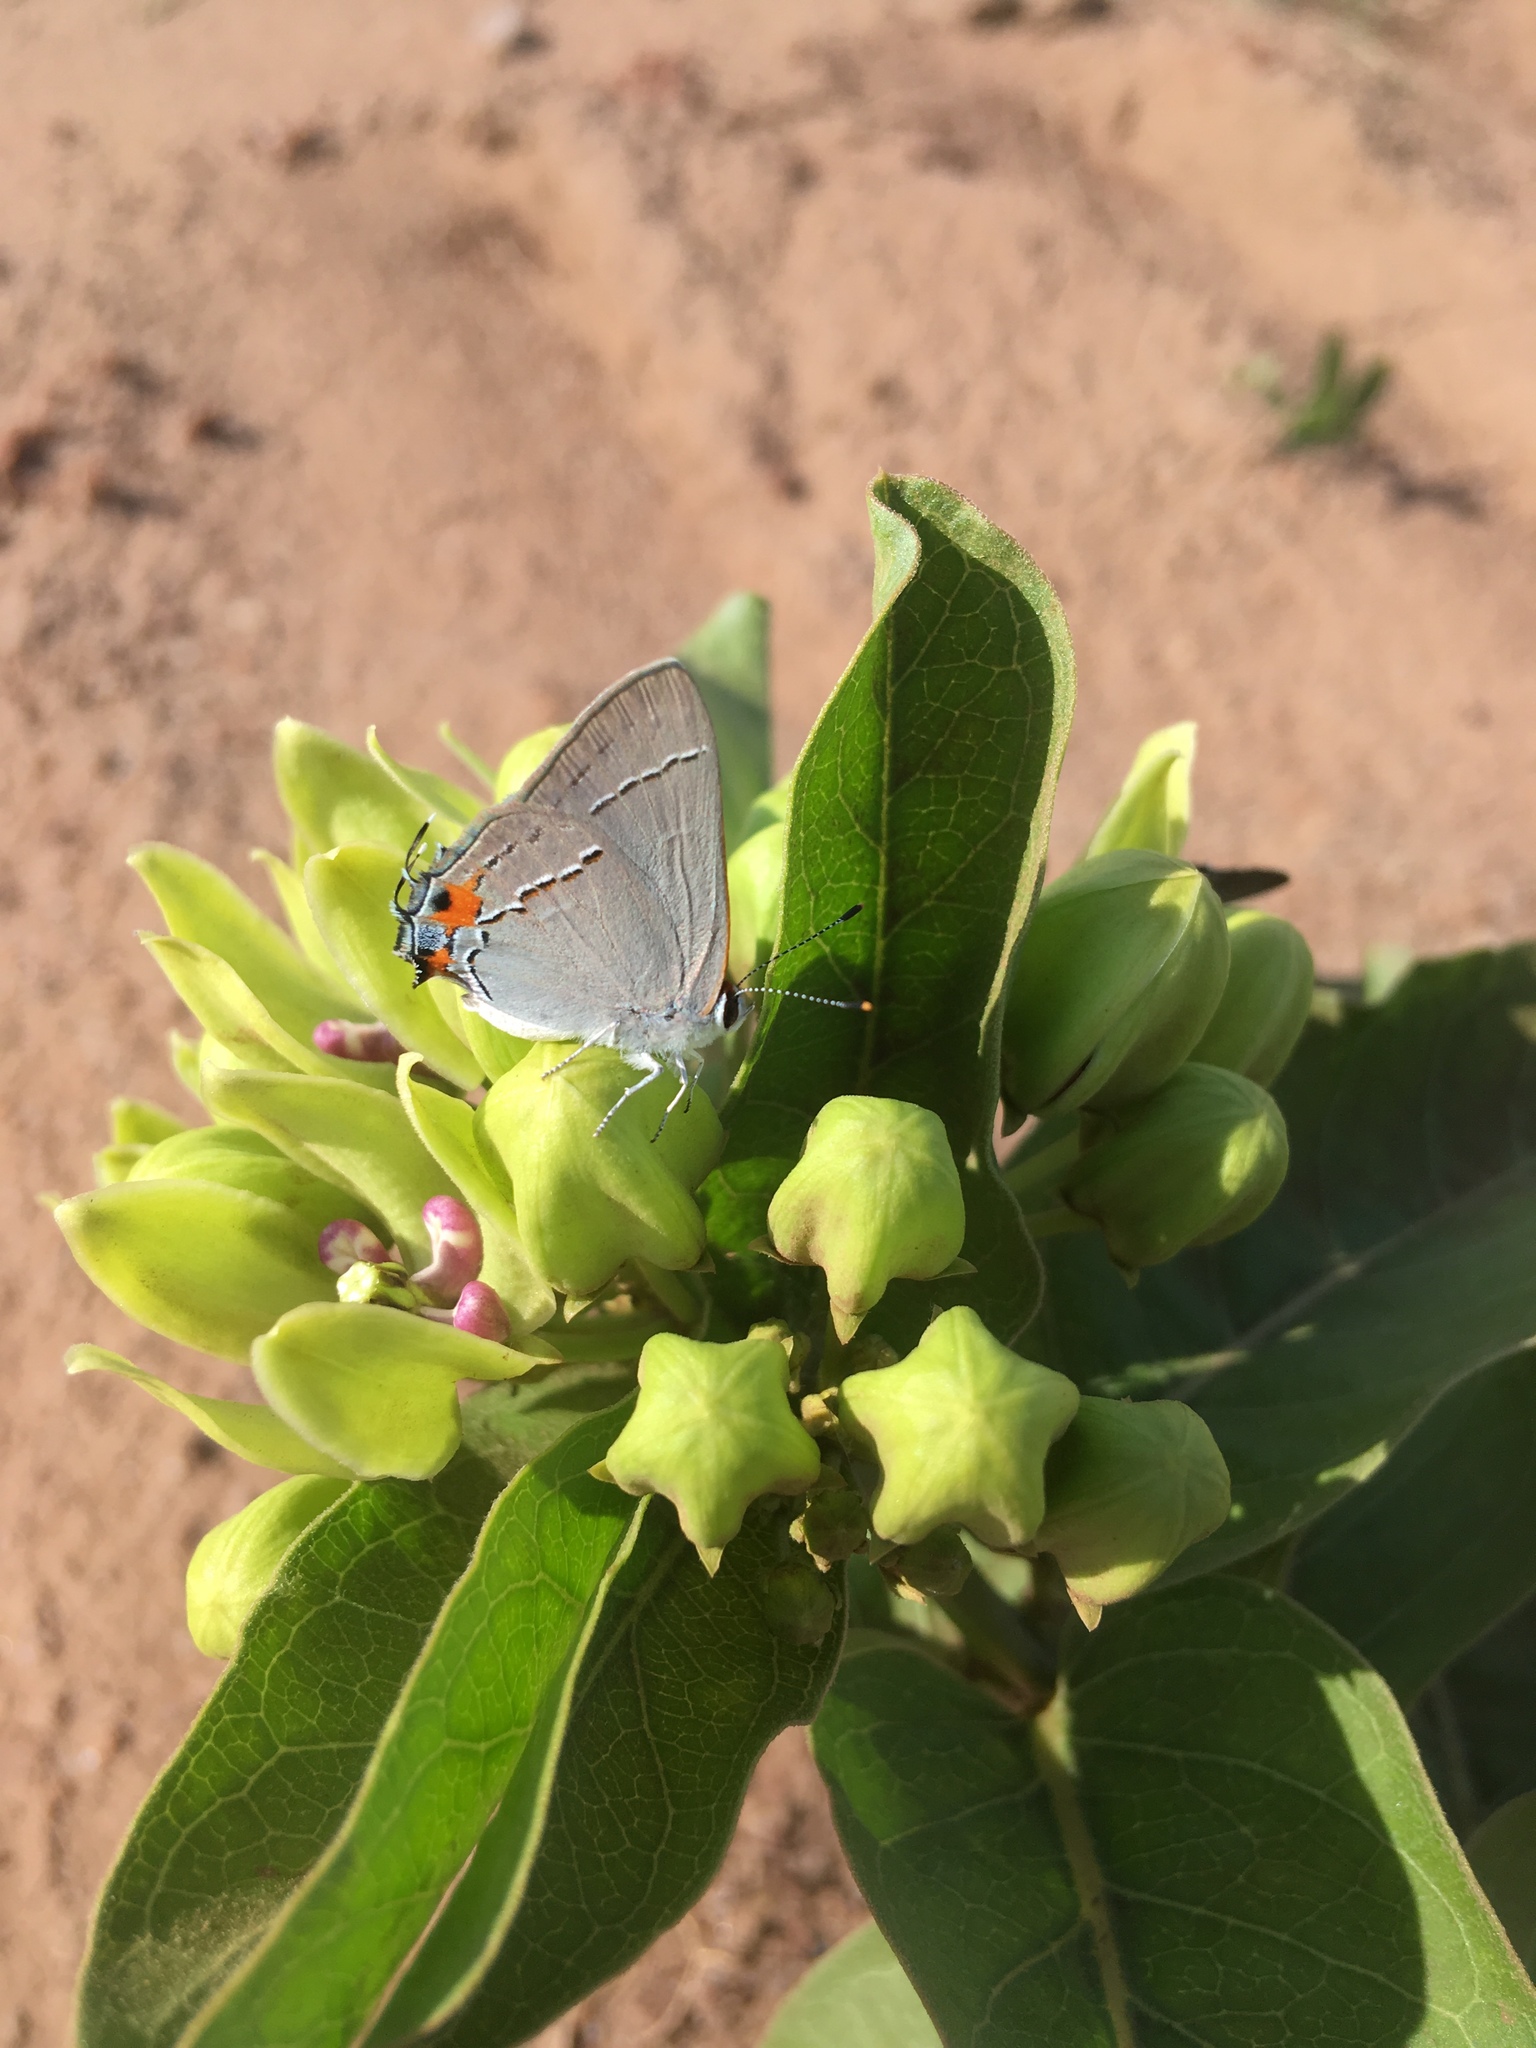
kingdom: Animalia
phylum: Arthropoda
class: Insecta
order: Lepidoptera
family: Lycaenidae
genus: Strymon
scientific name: Strymon melinus
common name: Gray hairstreak
